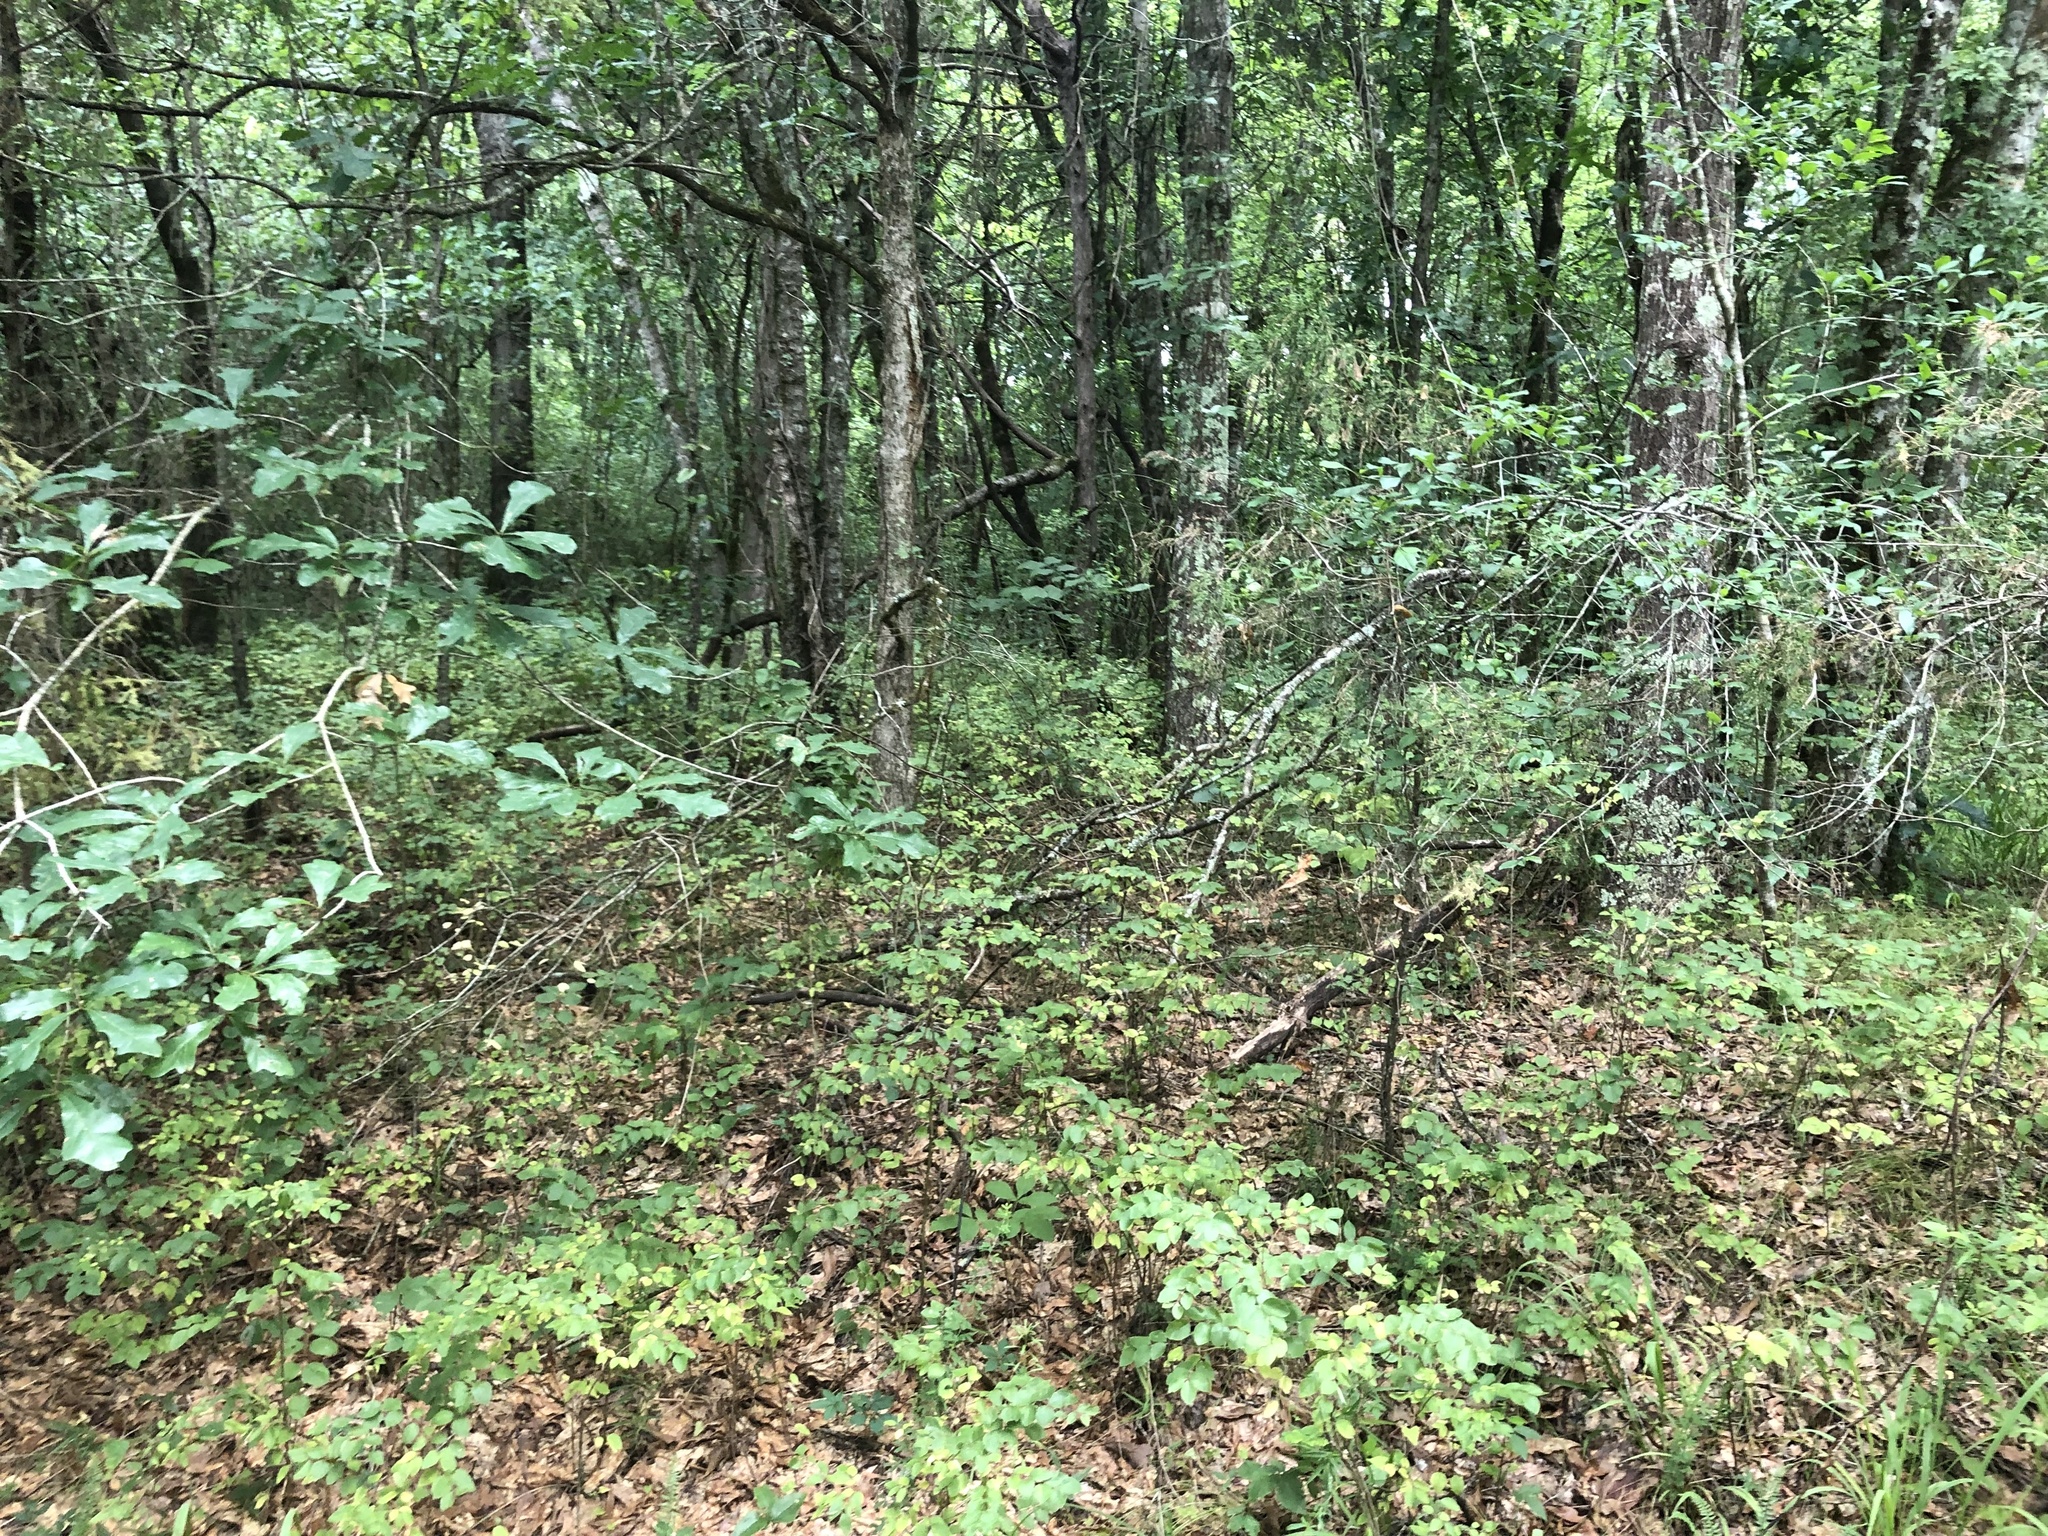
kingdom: Plantae
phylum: Tracheophyta
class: Magnoliopsida
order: Dipsacales
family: Caprifoliaceae
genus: Symphoricarpos
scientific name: Symphoricarpos orbiculatus
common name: Coralberry
